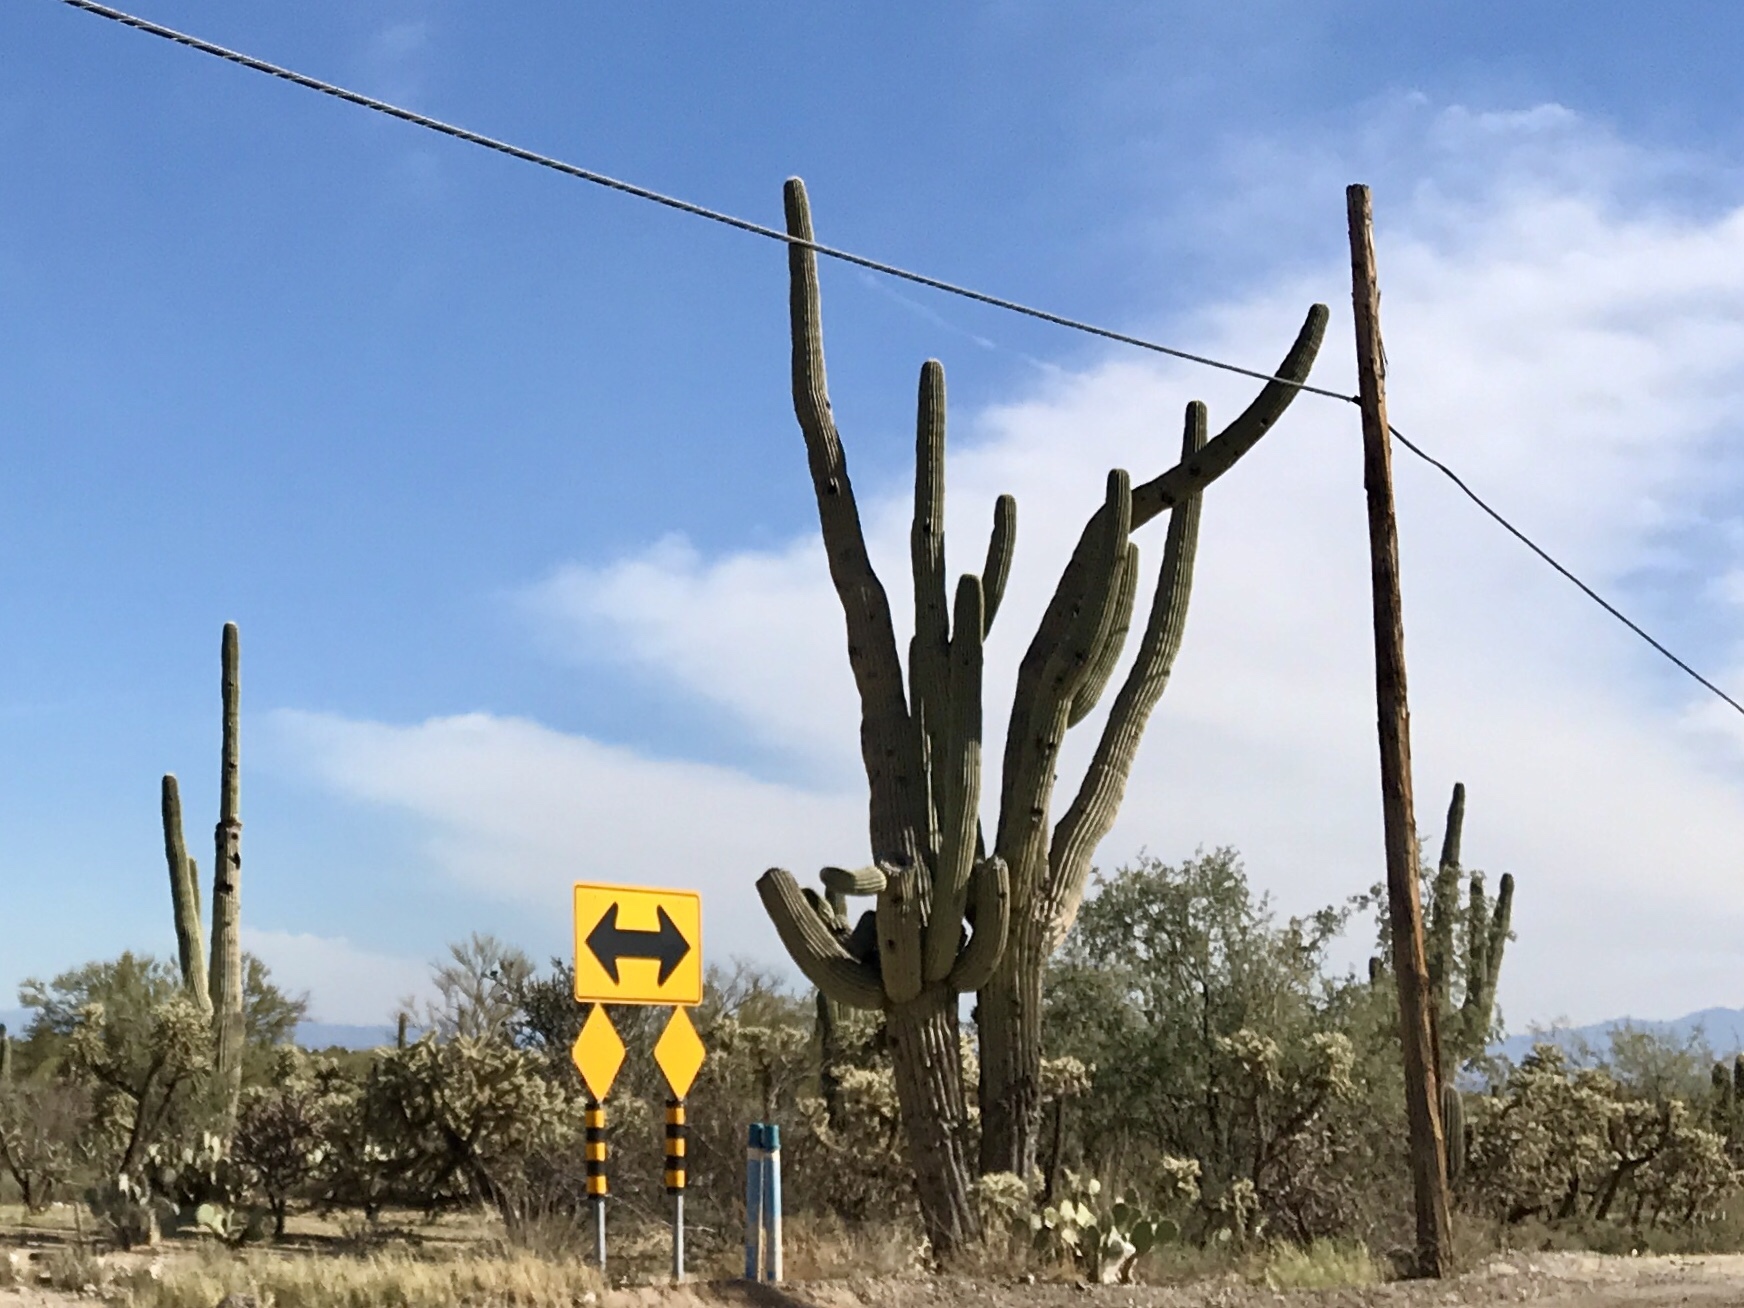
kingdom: Plantae
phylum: Tracheophyta
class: Magnoliopsida
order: Caryophyllales
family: Cactaceae
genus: Carnegiea
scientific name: Carnegiea gigantea
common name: Saguaro
